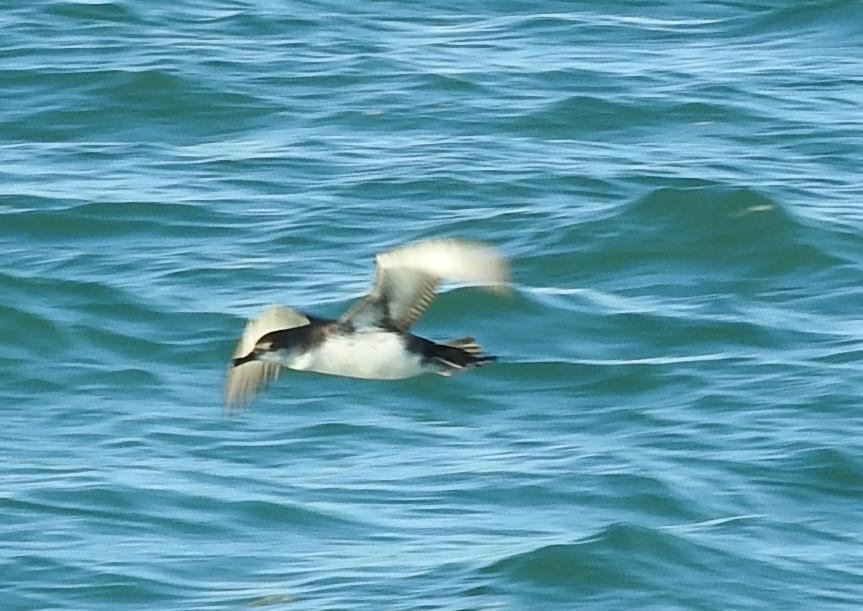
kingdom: Animalia
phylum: Chordata
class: Aves
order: Procellariiformes
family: Procellariidae
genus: Puffinus
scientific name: Puffinus yelkouan
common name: Yelkouan shearwater
